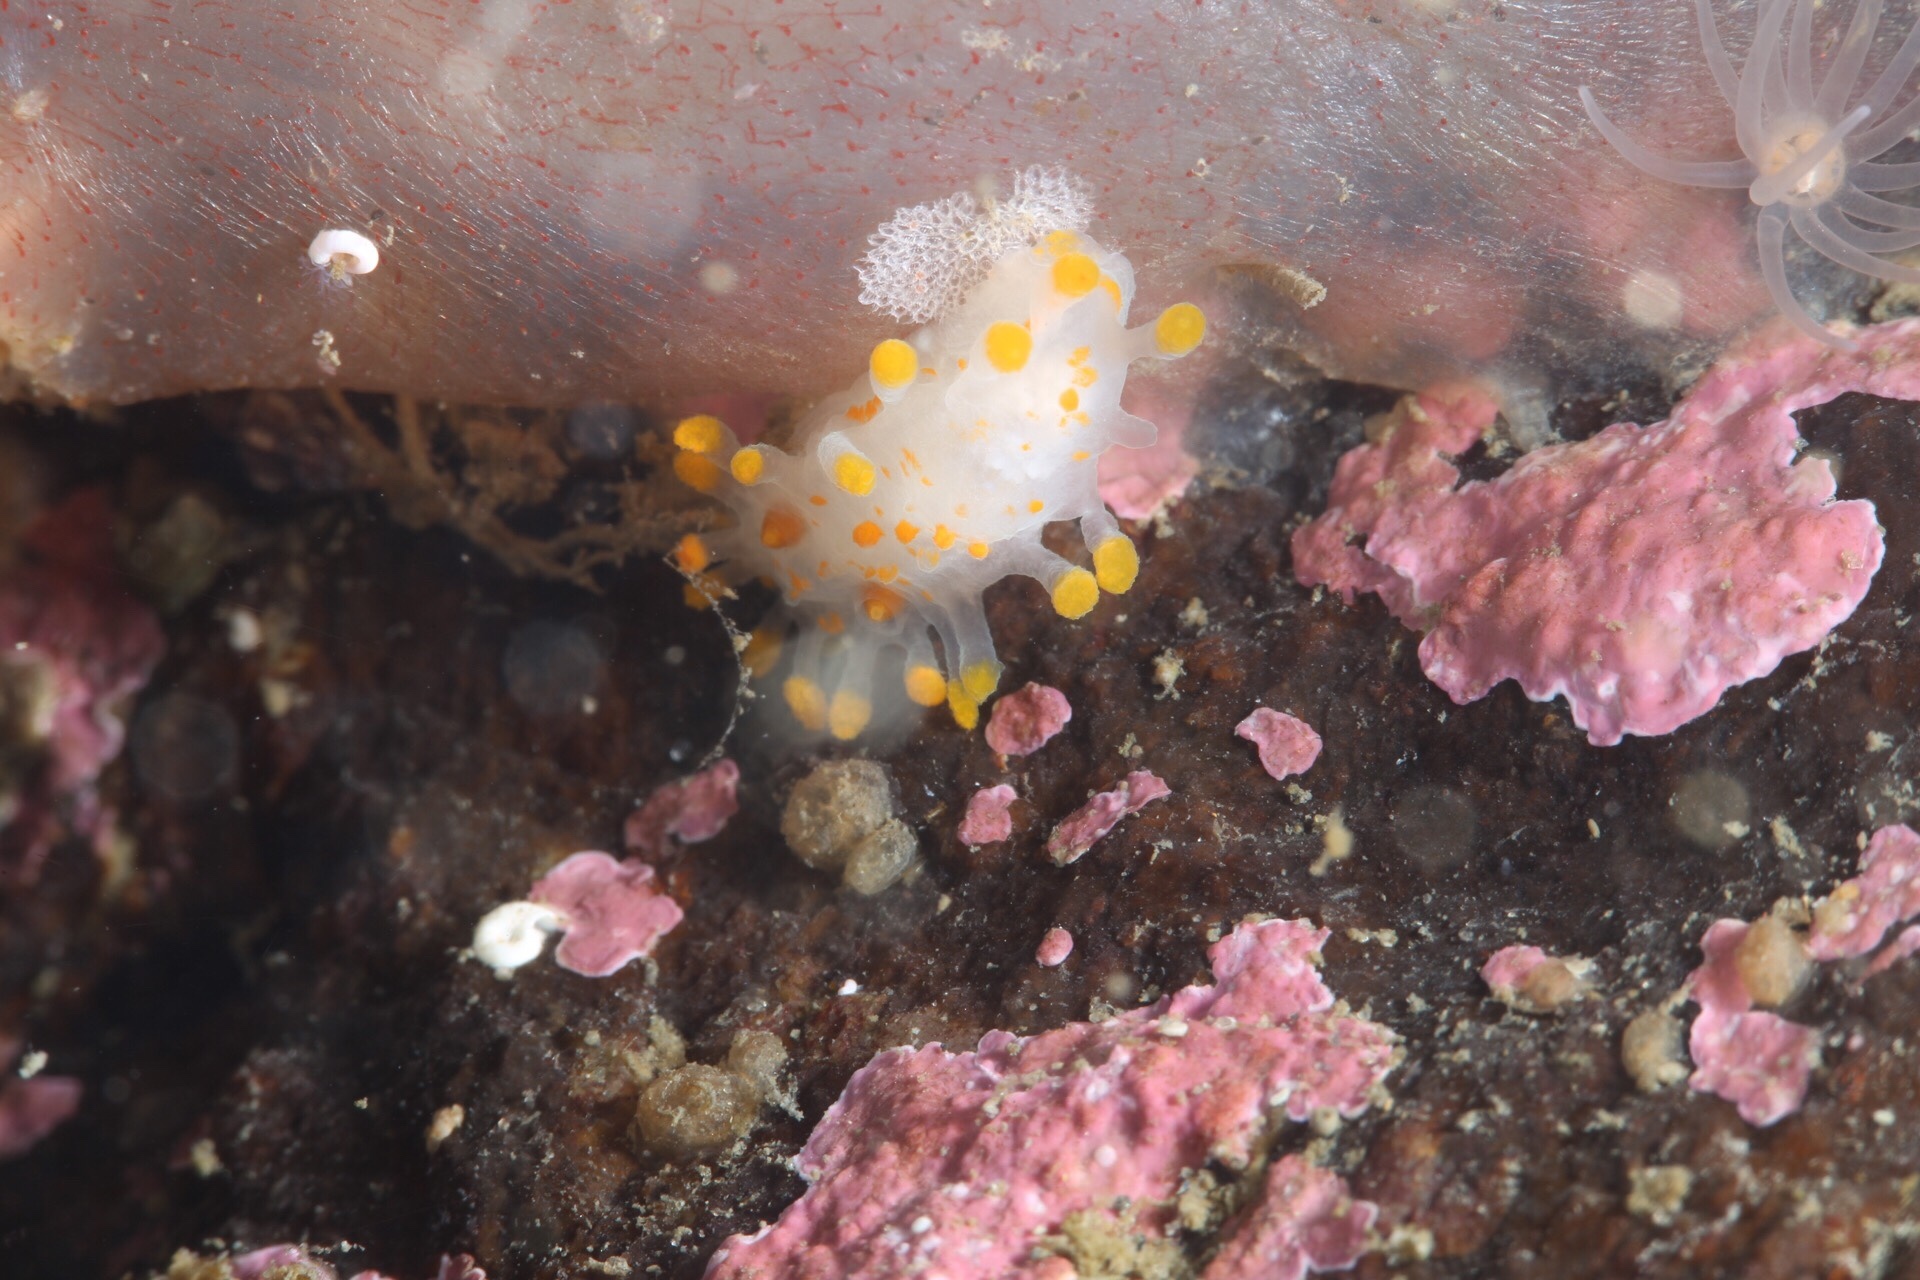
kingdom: Animalia
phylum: Mollusca
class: Gastropoda
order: Nudibranchia
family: Polyceridae
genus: Limacia
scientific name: Limacia clavigera
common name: Orange-clubbed sea slug
